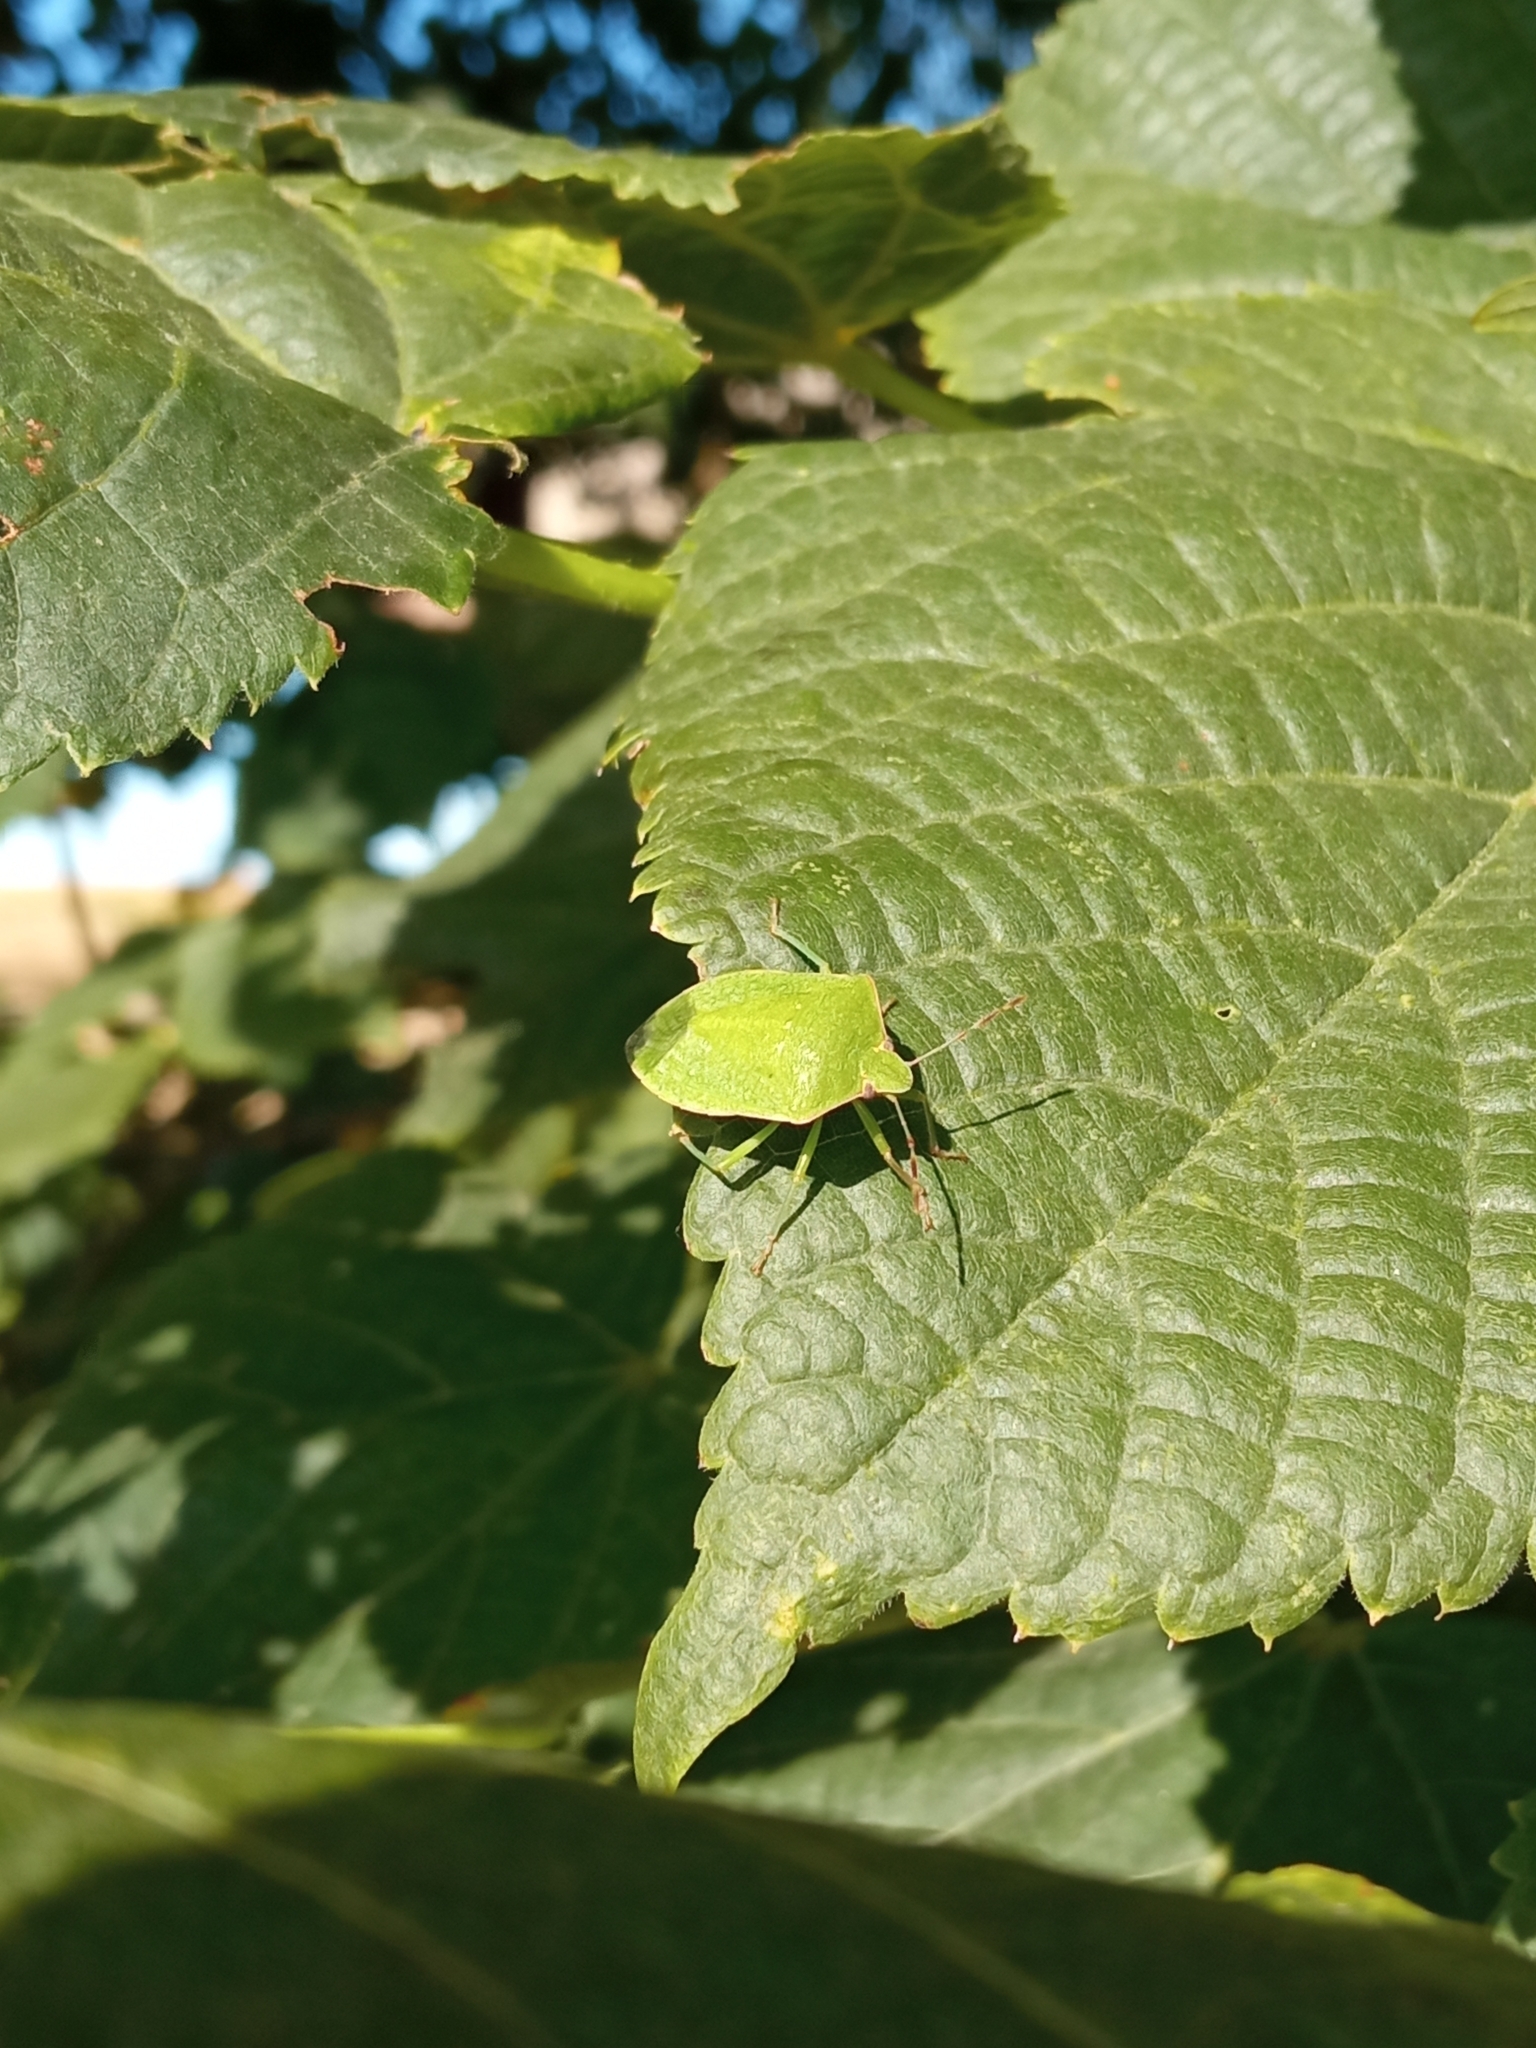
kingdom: Animalia
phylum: Arthropoda
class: Insecta
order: Hemiptera
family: Pentatomidae
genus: Nezara
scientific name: Nezara viridula
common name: Southern green stink bug
